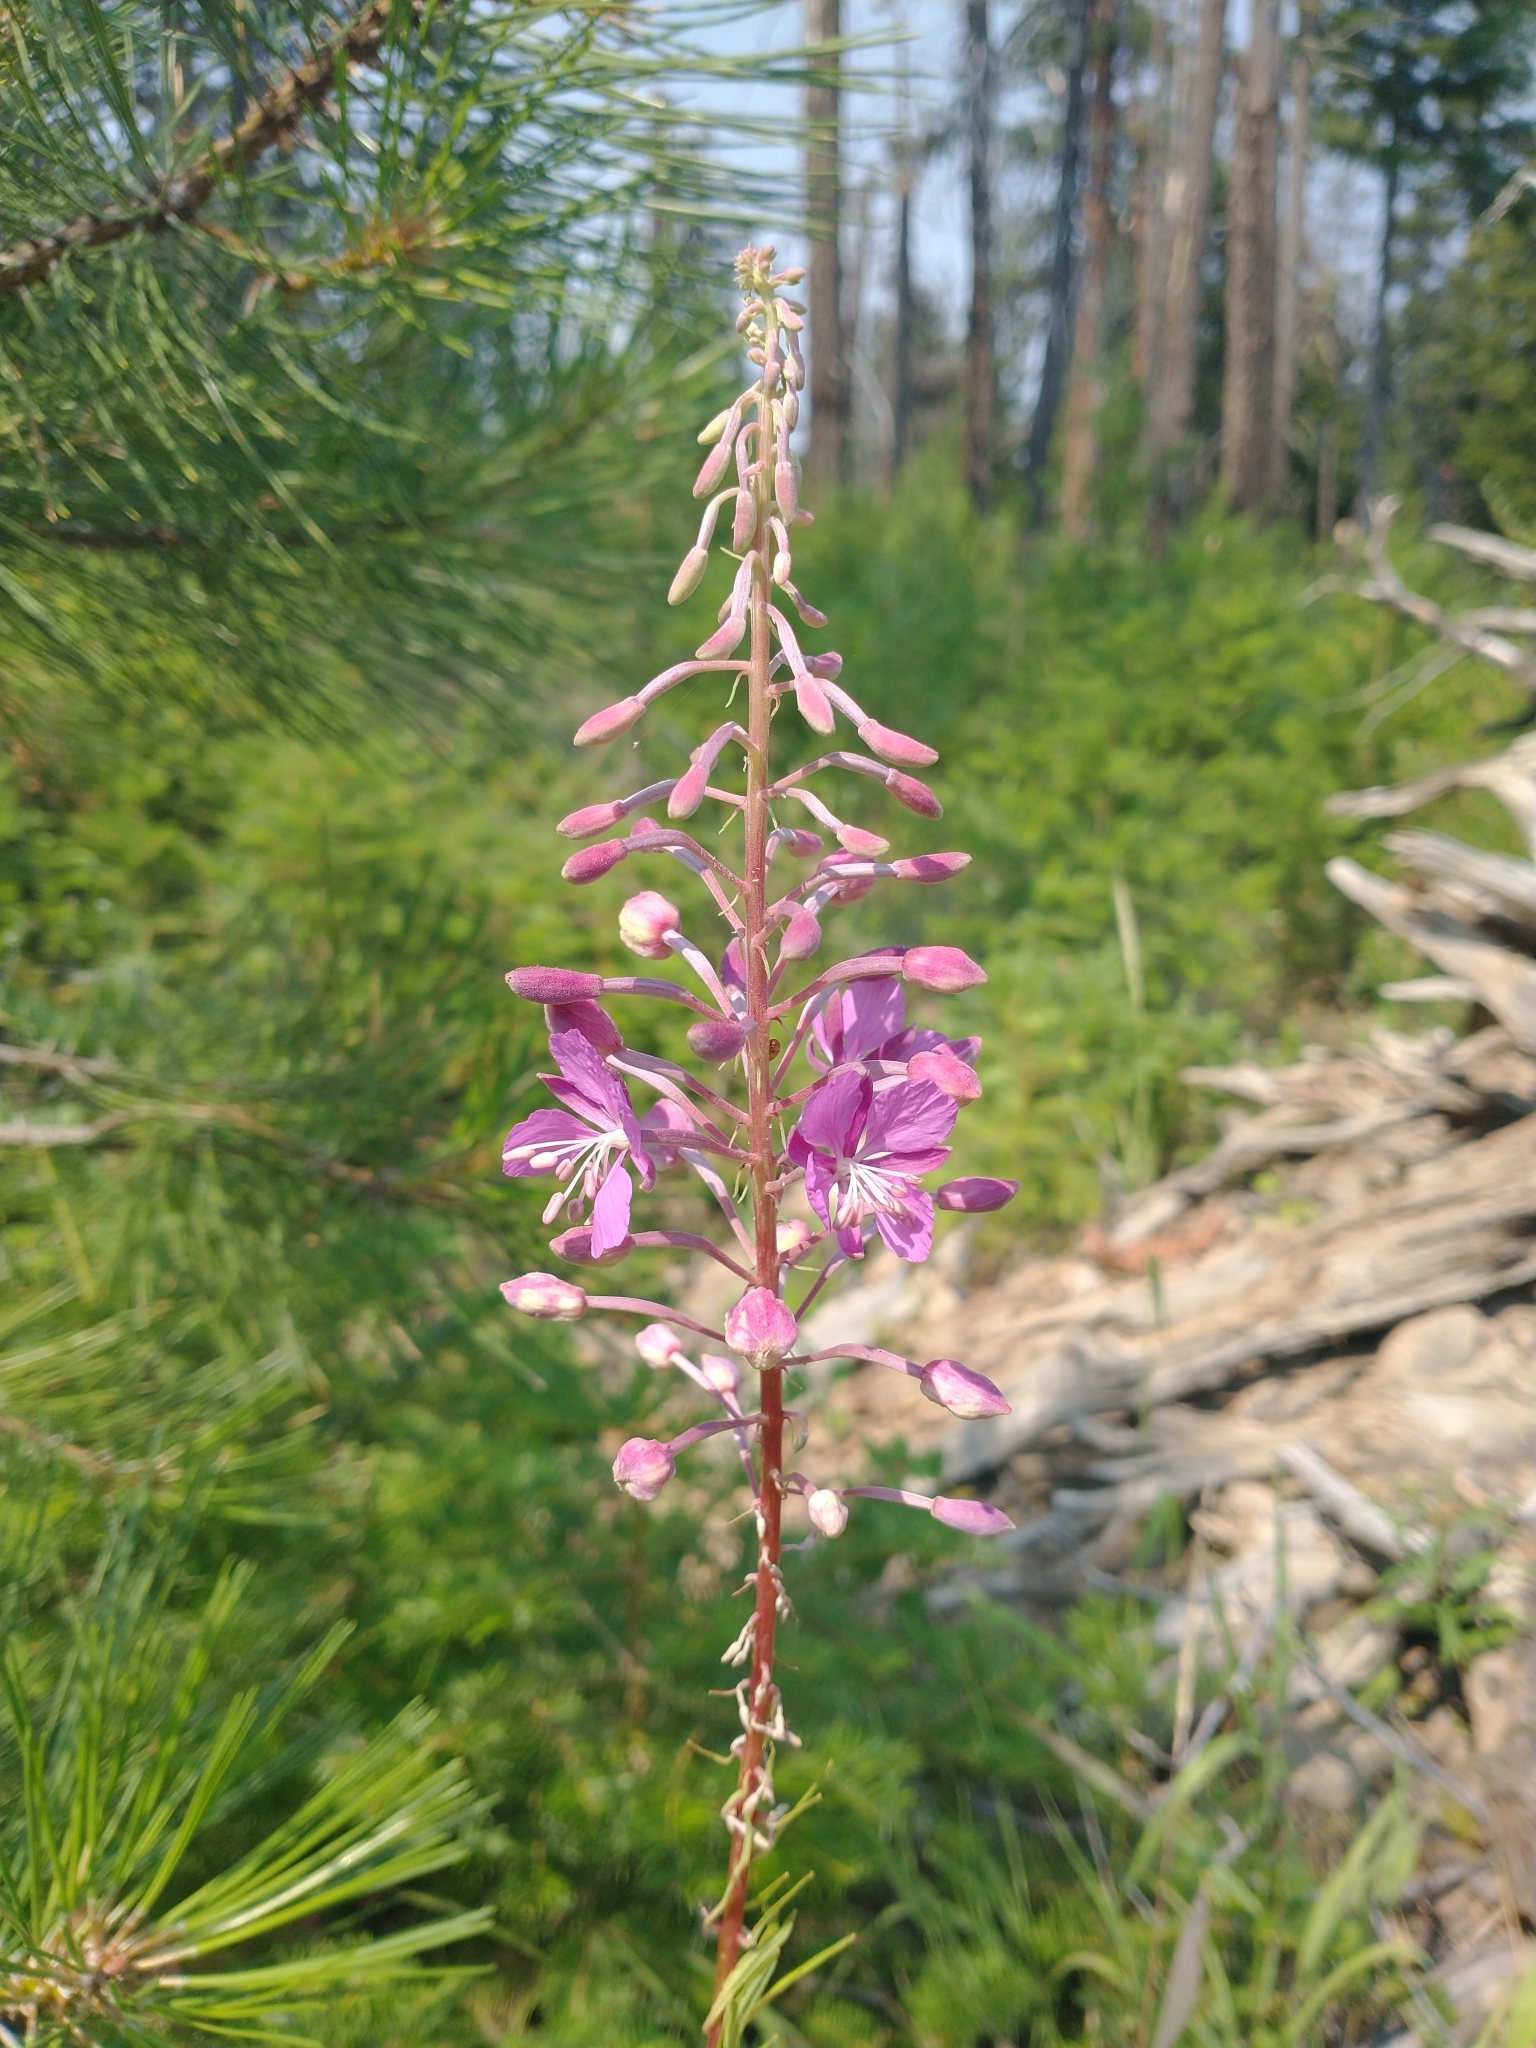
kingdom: Plantae
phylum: Tracheophyta
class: Magnoliopsida
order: Myrtales
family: Onagraceae
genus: Chamaenerion
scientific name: Chamaenerion angustifolium
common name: Fireweed
